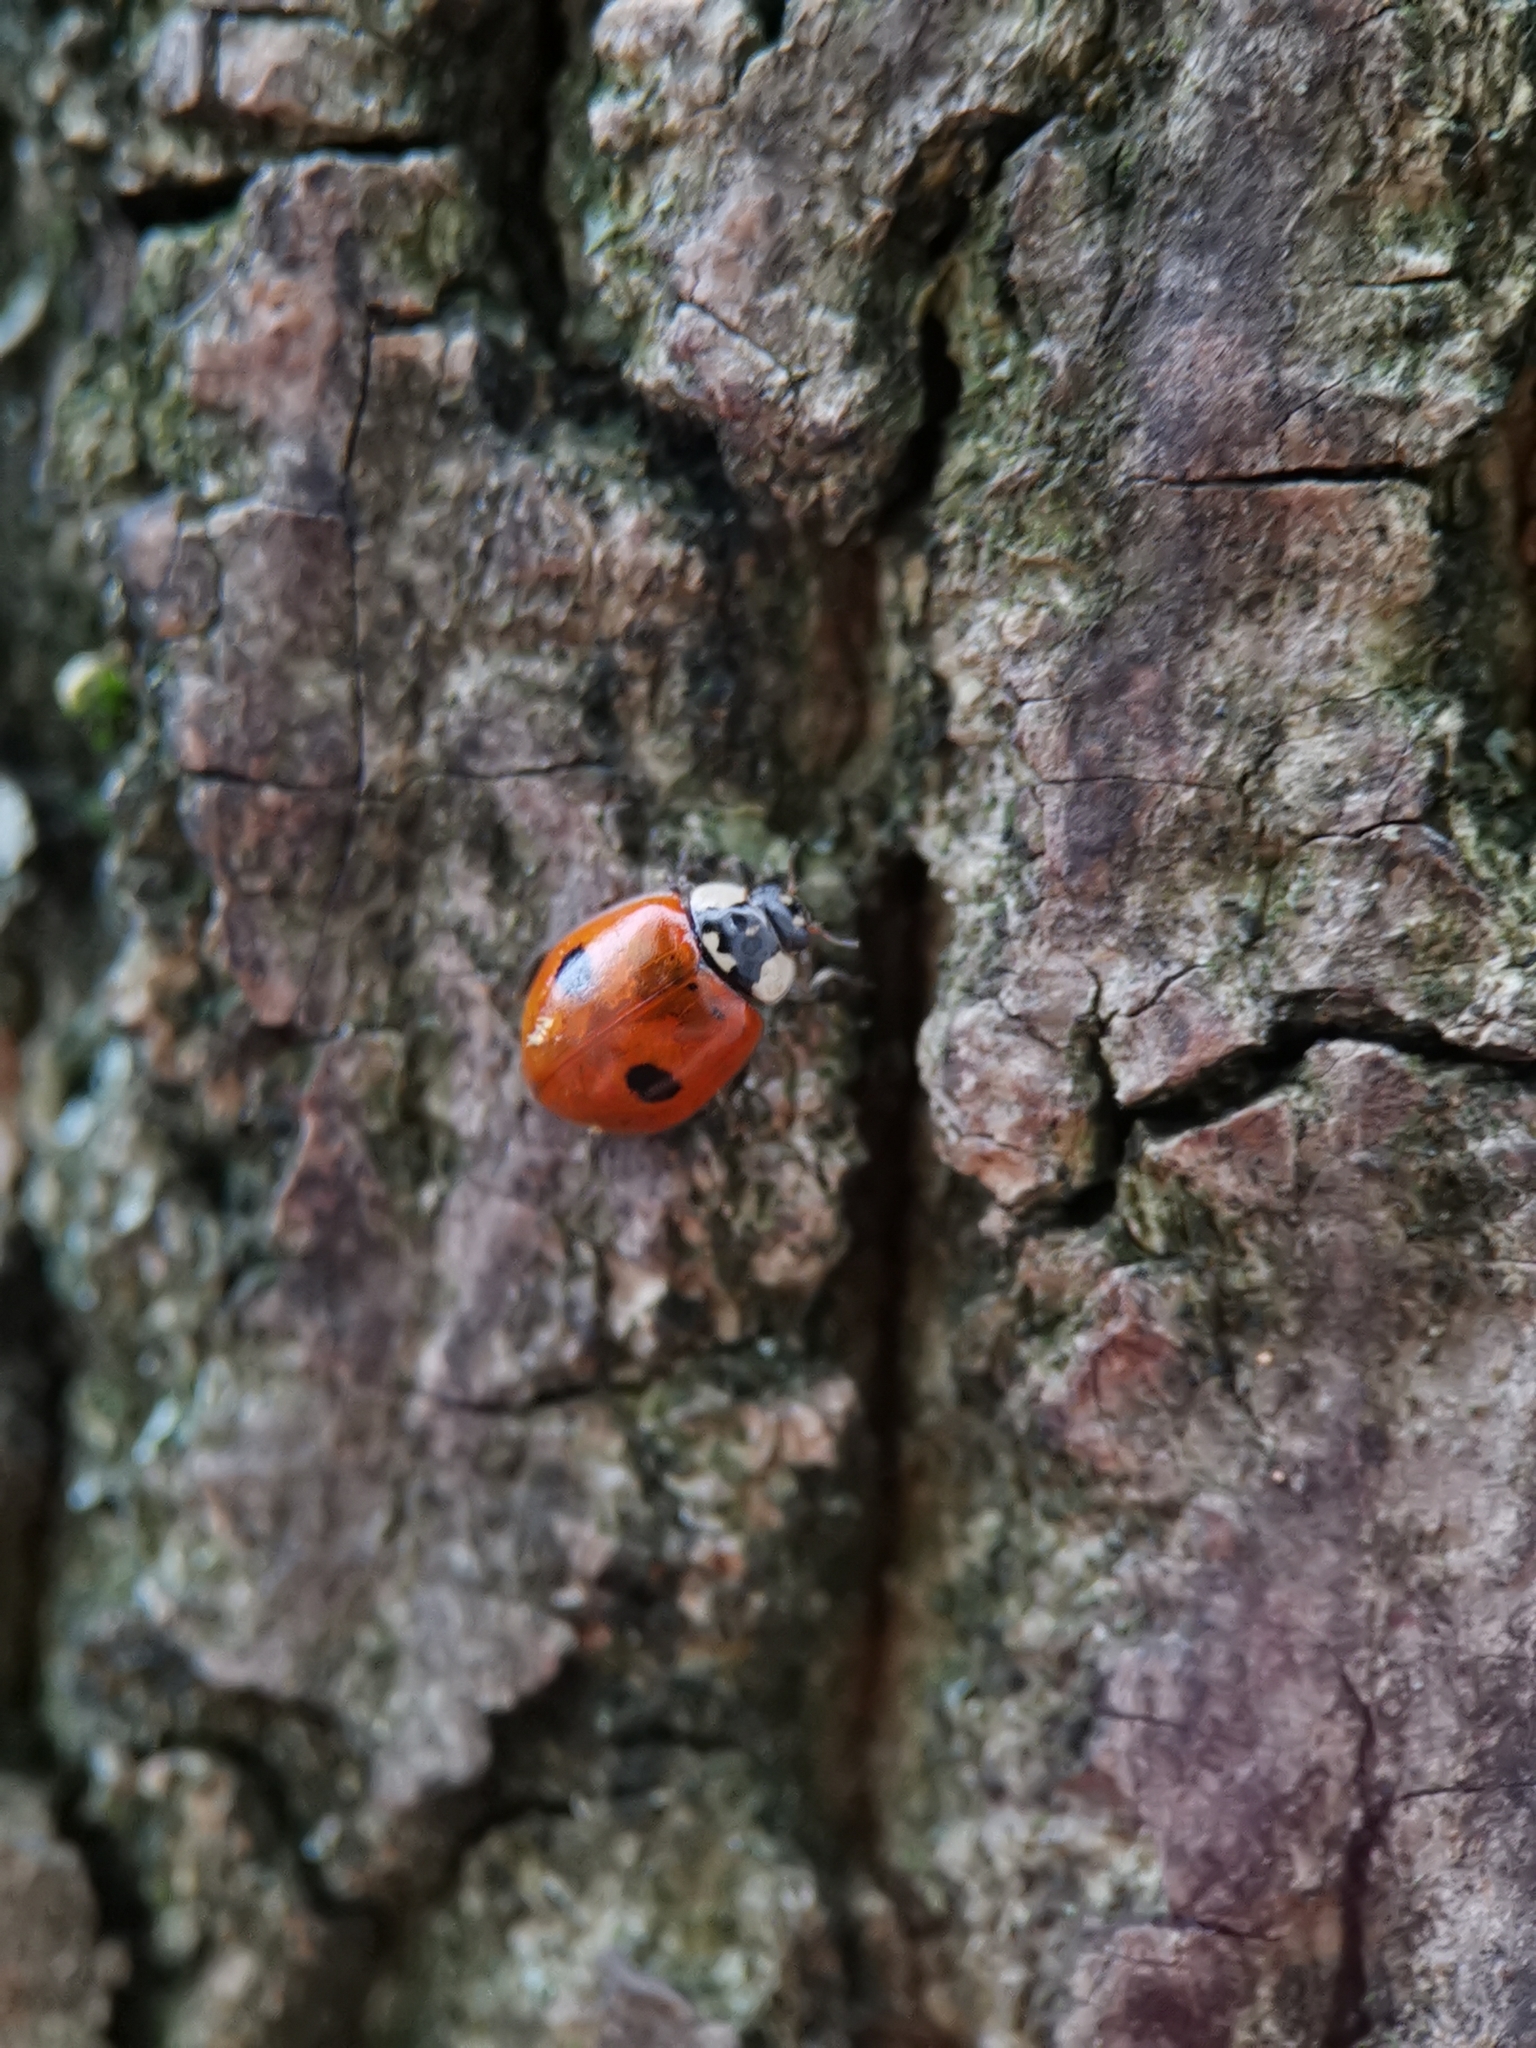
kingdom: Animalia
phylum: Arthropoda
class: Insecta
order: Coleoptera
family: Coccinellidae
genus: Adalia
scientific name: Adalia bipunctata
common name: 2-spot ladybird
